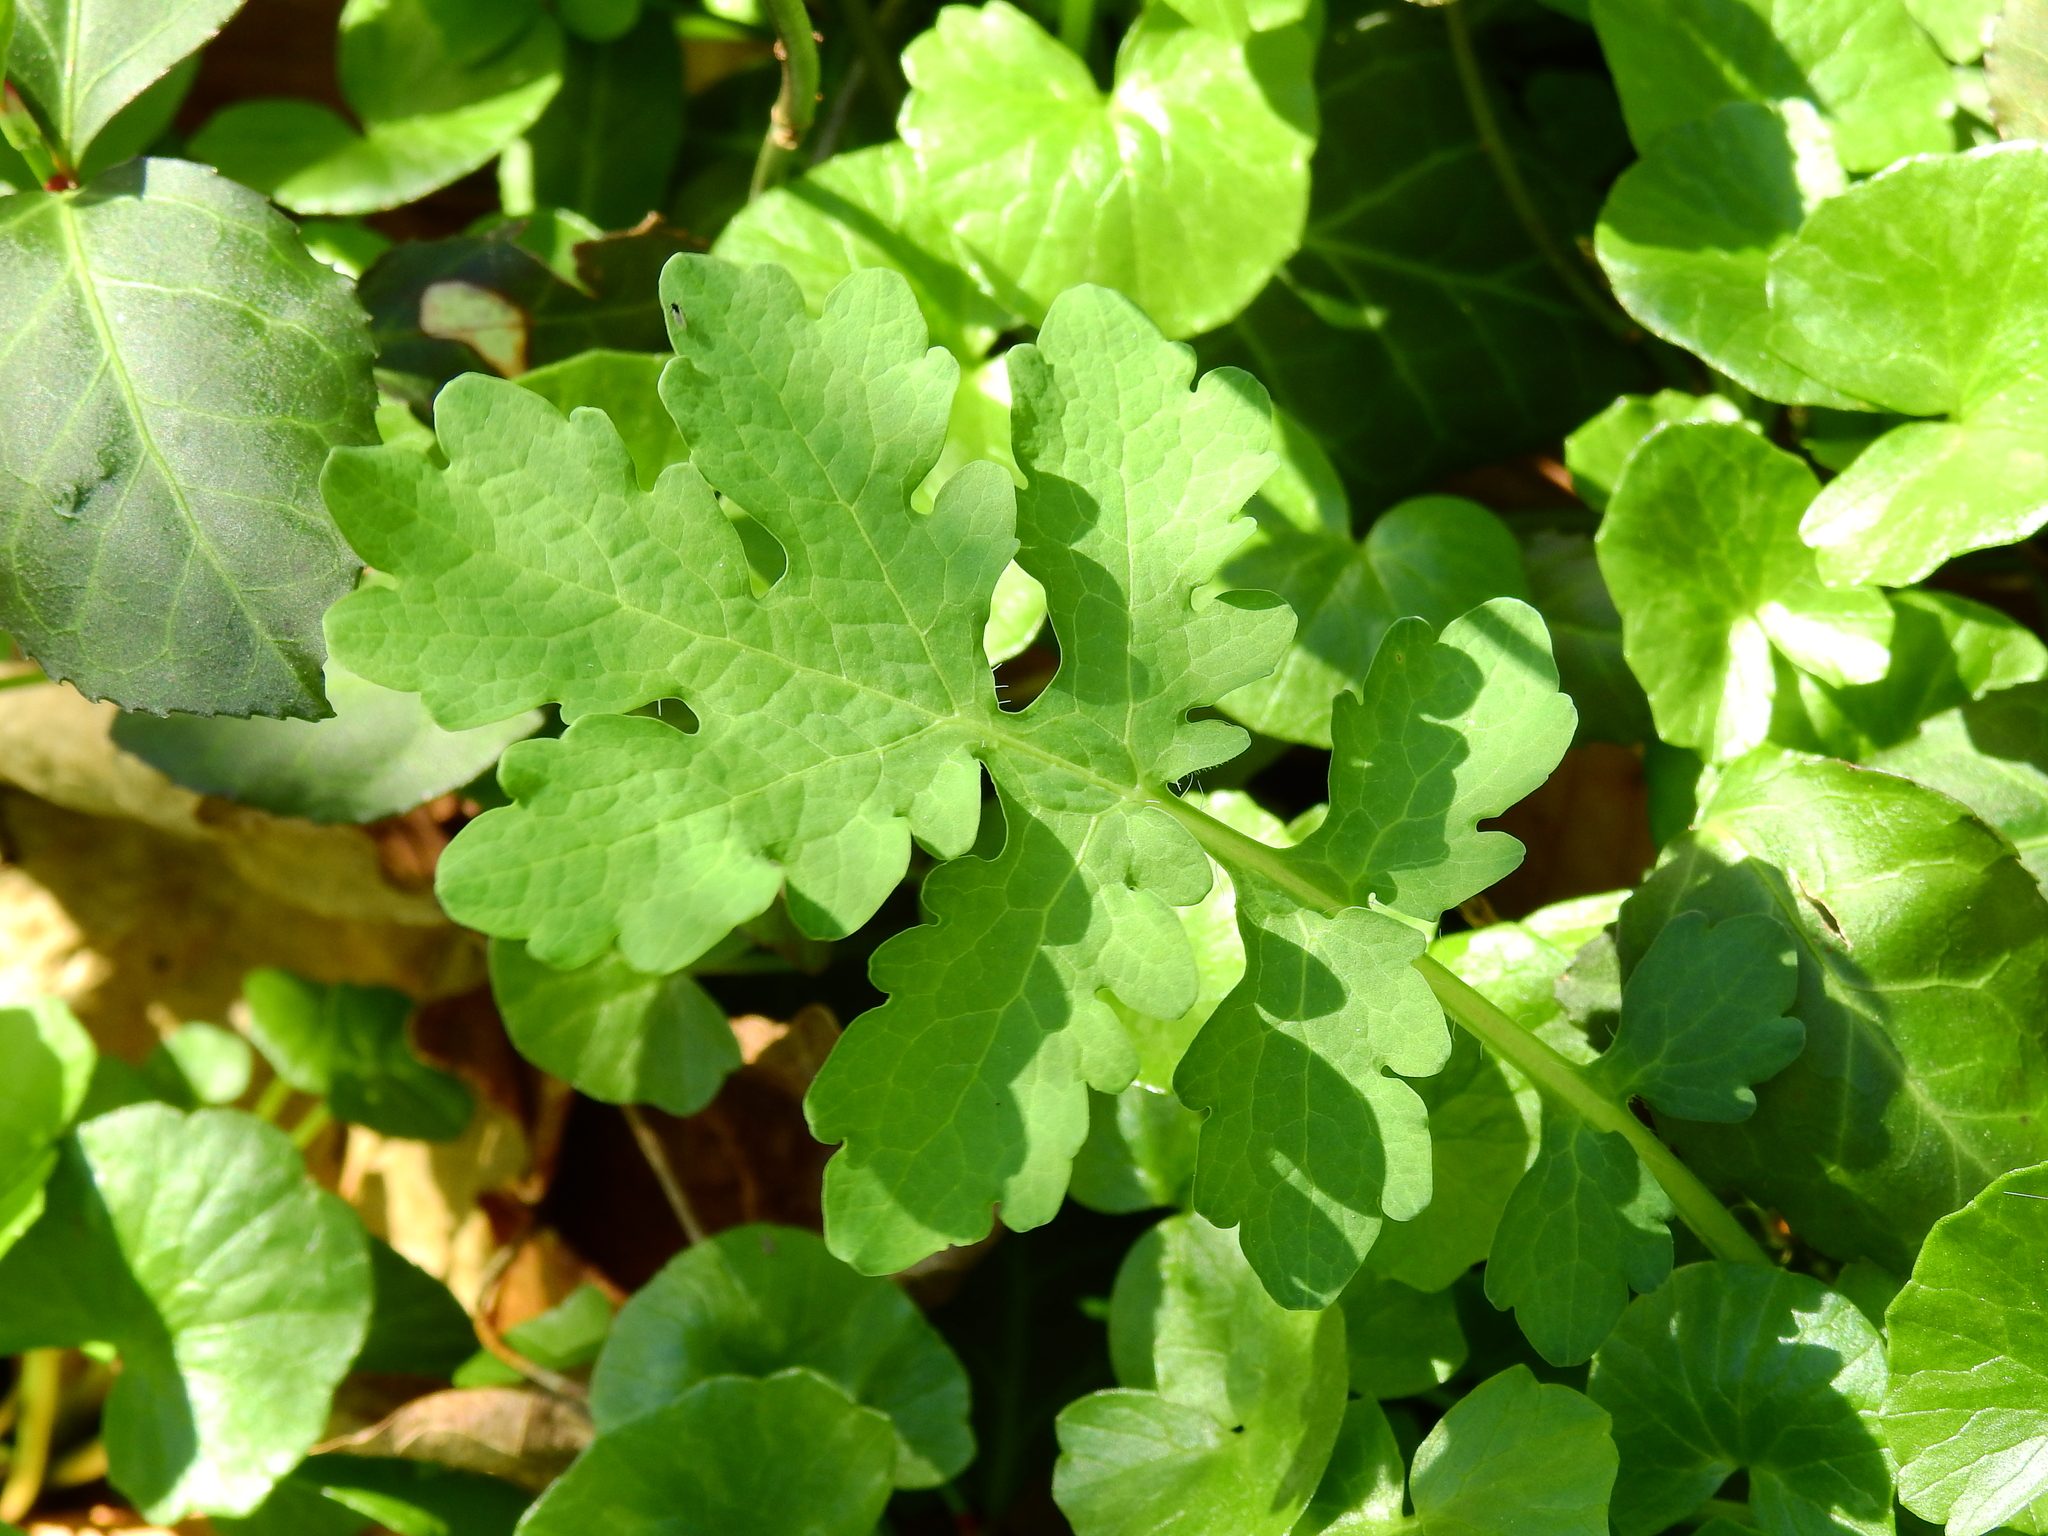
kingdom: Plantae
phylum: Tracheophyta
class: Magnoliopsida
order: Ranunculales
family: Papaveraceae
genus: Stylophorum
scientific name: Stylophorum diphyllum
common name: Celandine poppy
